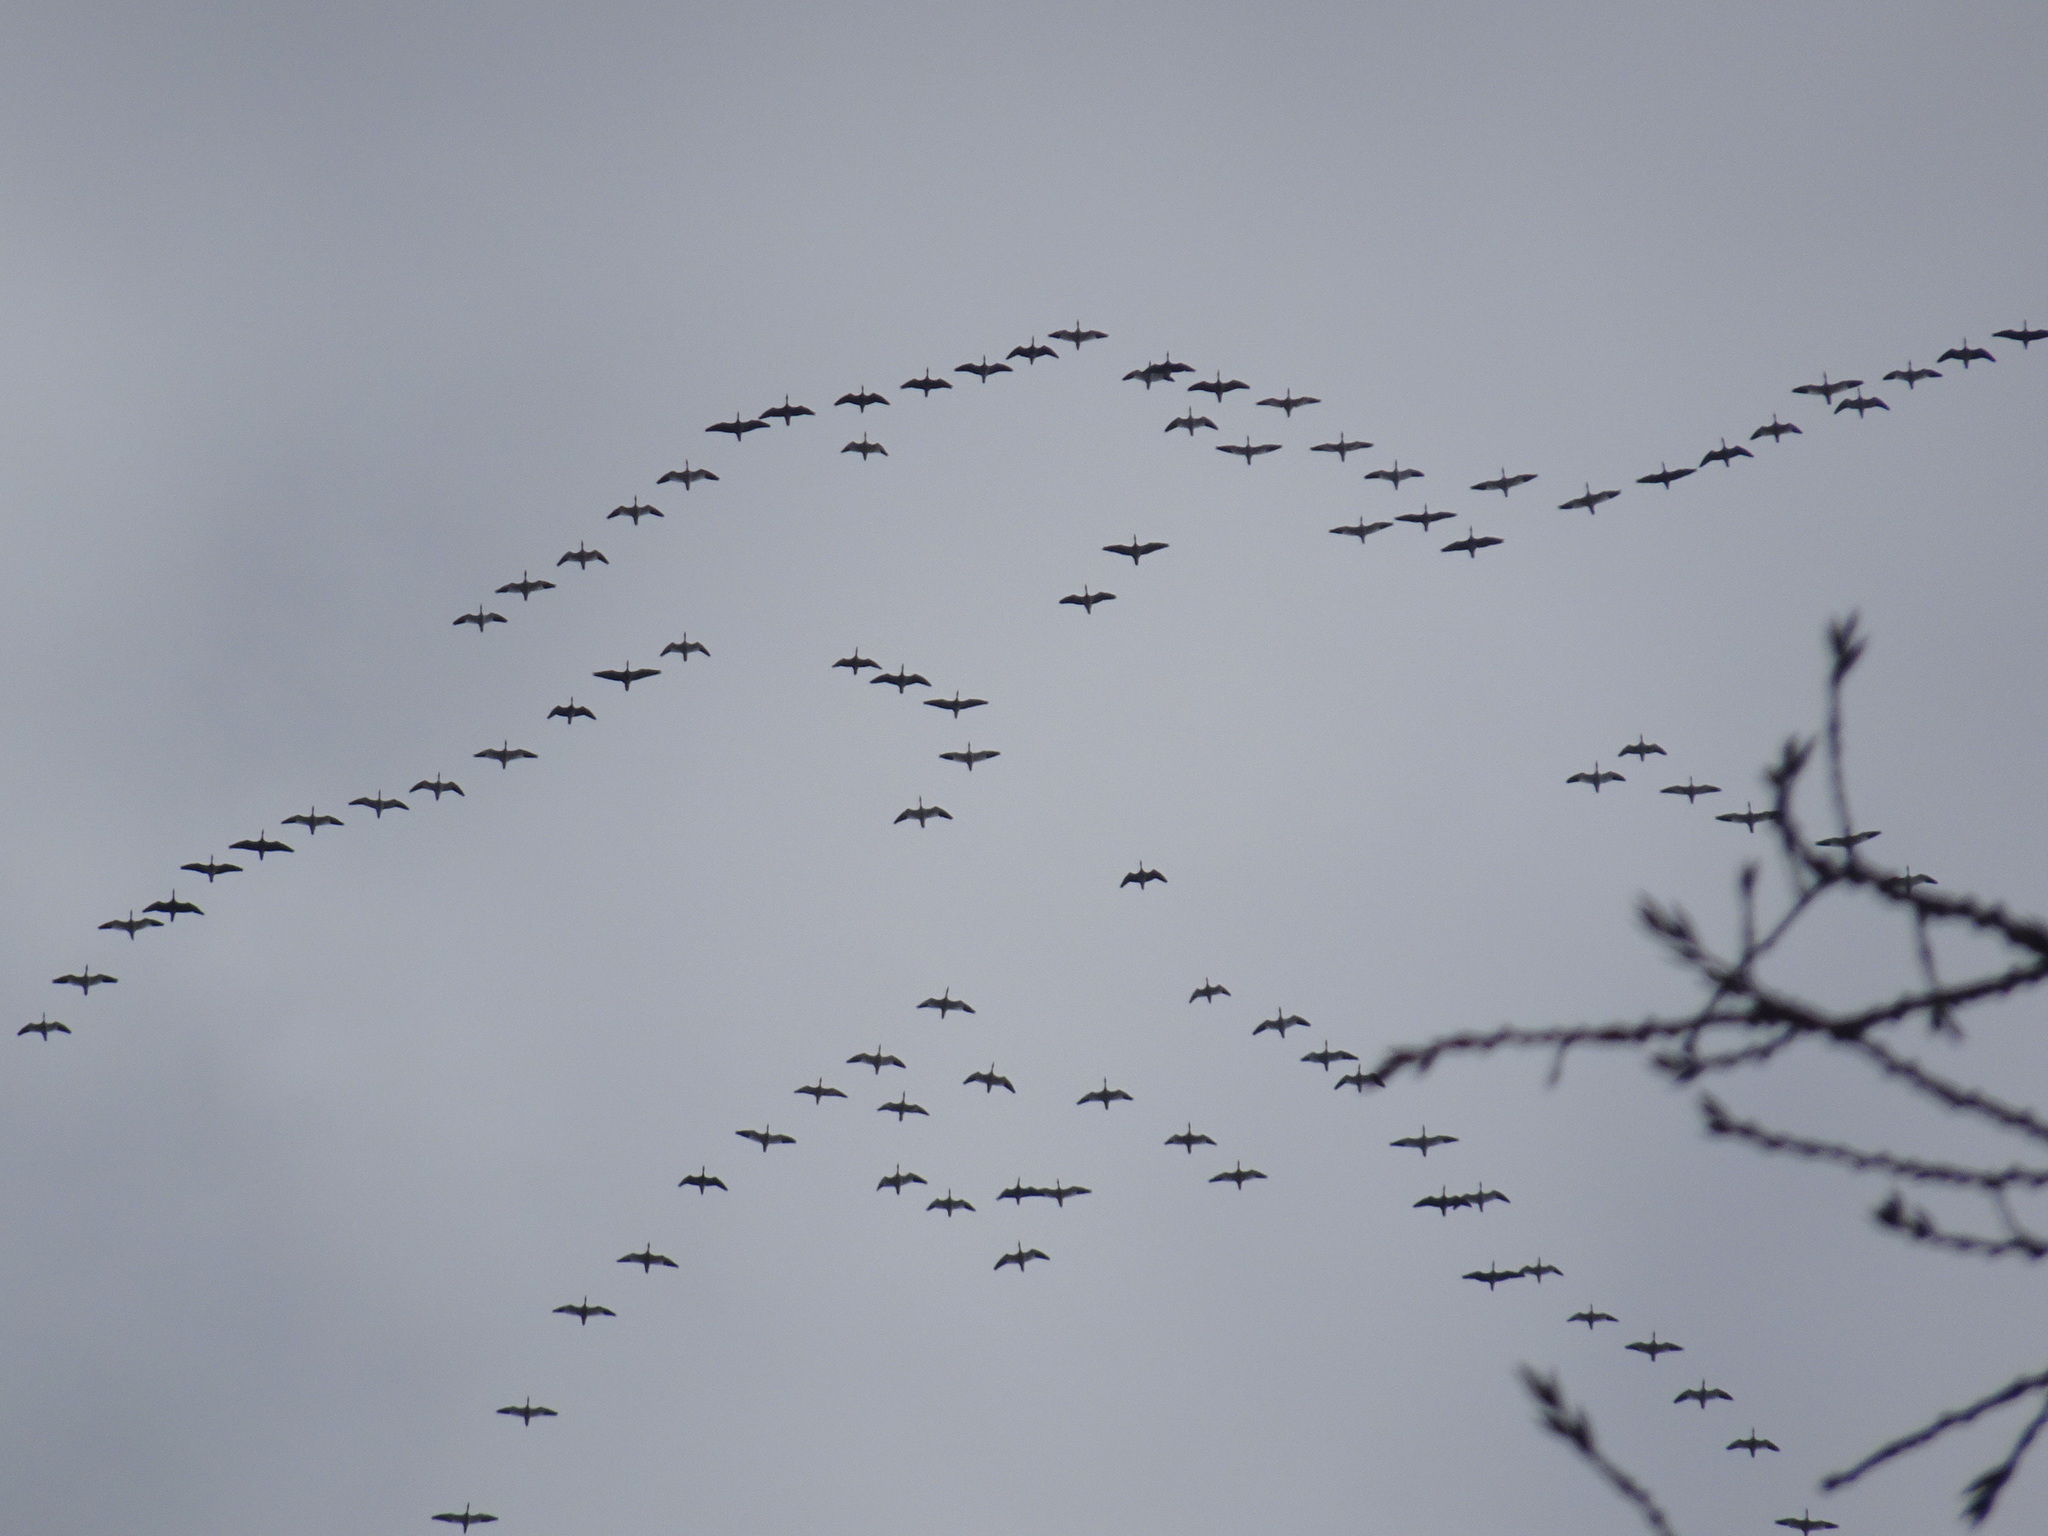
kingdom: Animalia
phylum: Chordata
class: Aves
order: Anseriformes
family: Anatidae
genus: Anser
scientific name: Anser caerulescens
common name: Snow goose
